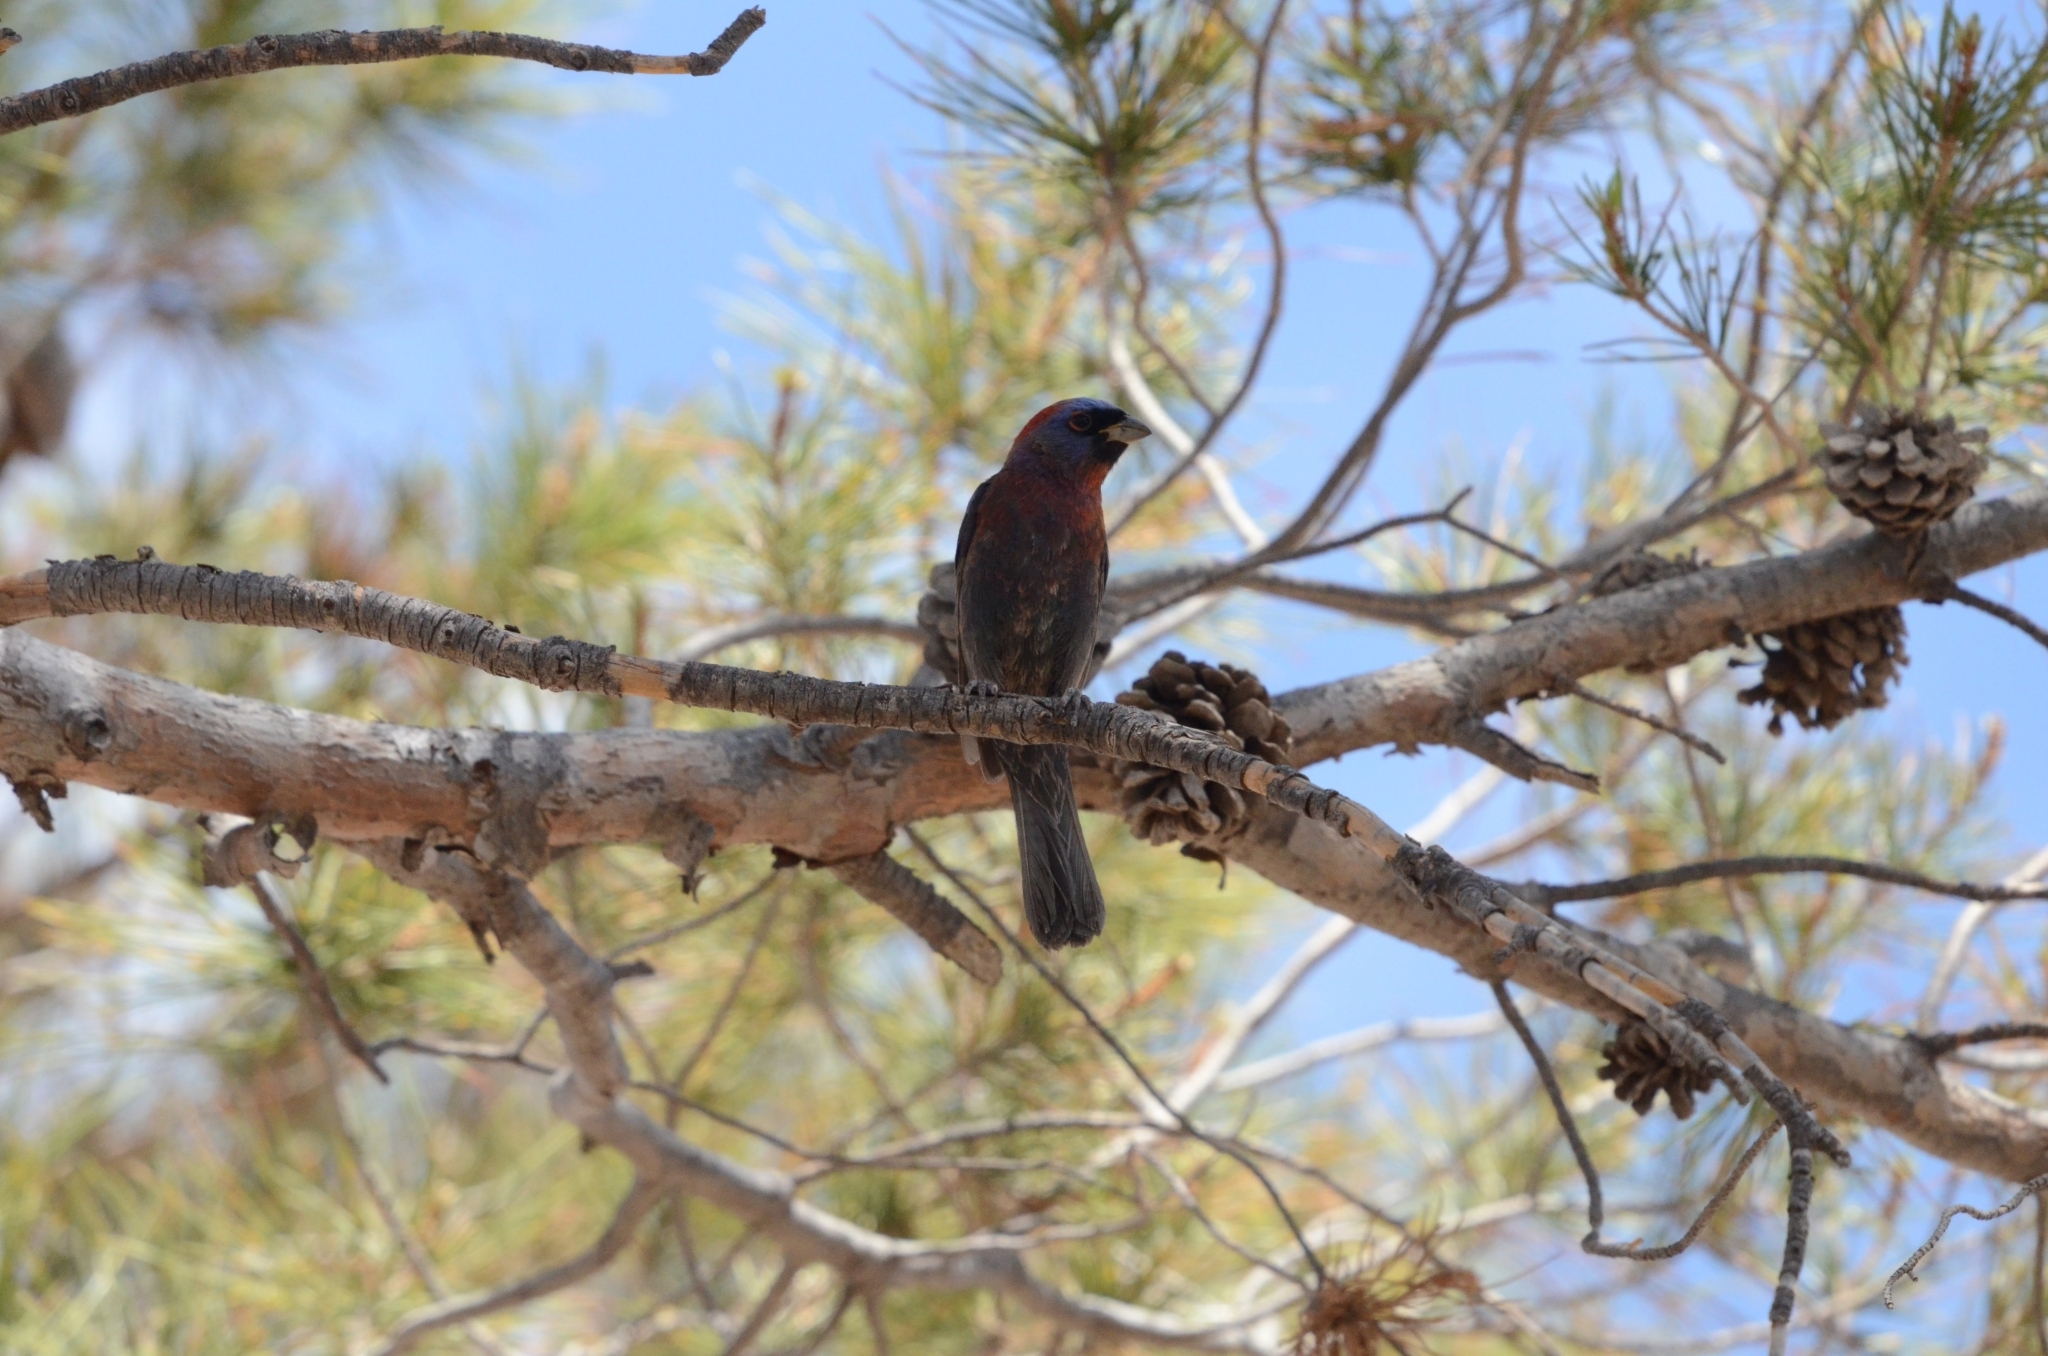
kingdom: Animalia
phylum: Chordata
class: Aves
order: Passeriformes
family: Cardinalidae
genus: Passerina
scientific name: Passerina versicolor
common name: Varied bunting
